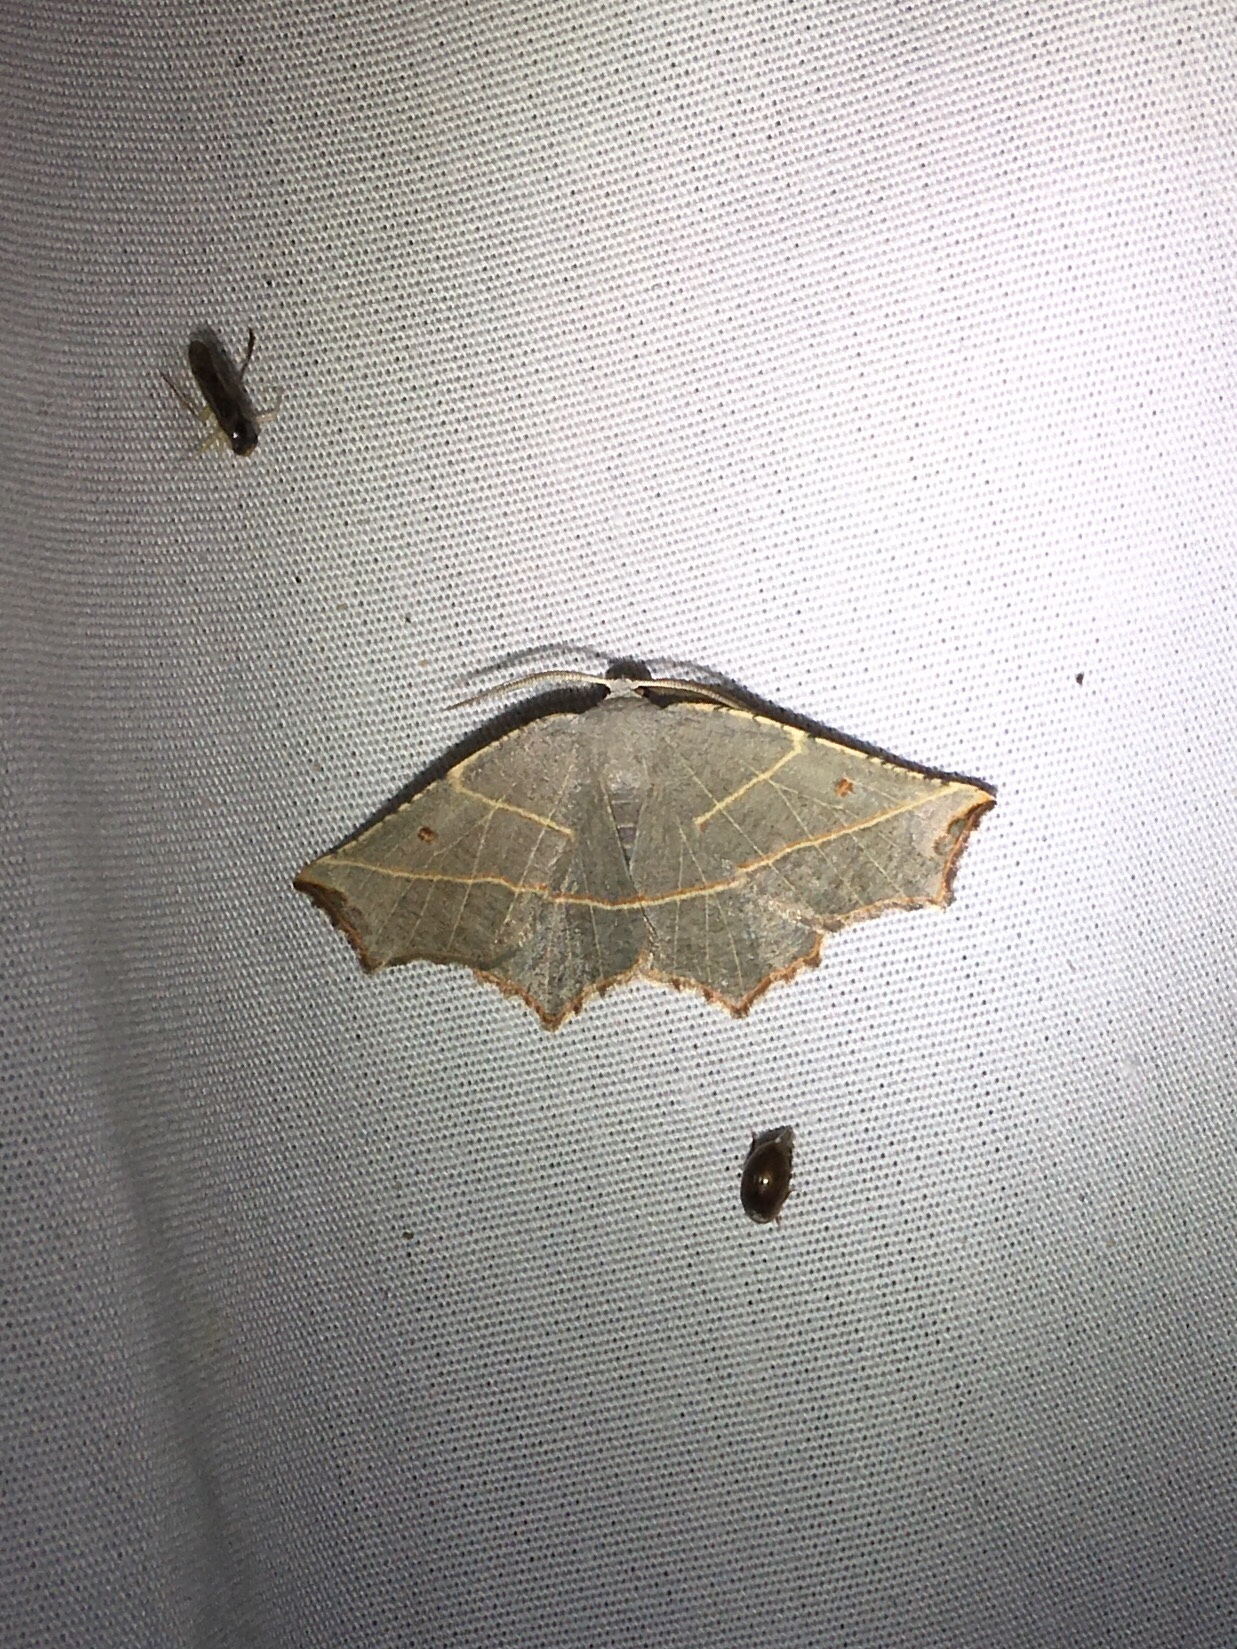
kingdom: Animalia
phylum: Arthropoda
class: Insecta
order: Lepidoptera
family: Geometridae
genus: Metanema
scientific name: Metanema inatomaria
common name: Pale metanema
